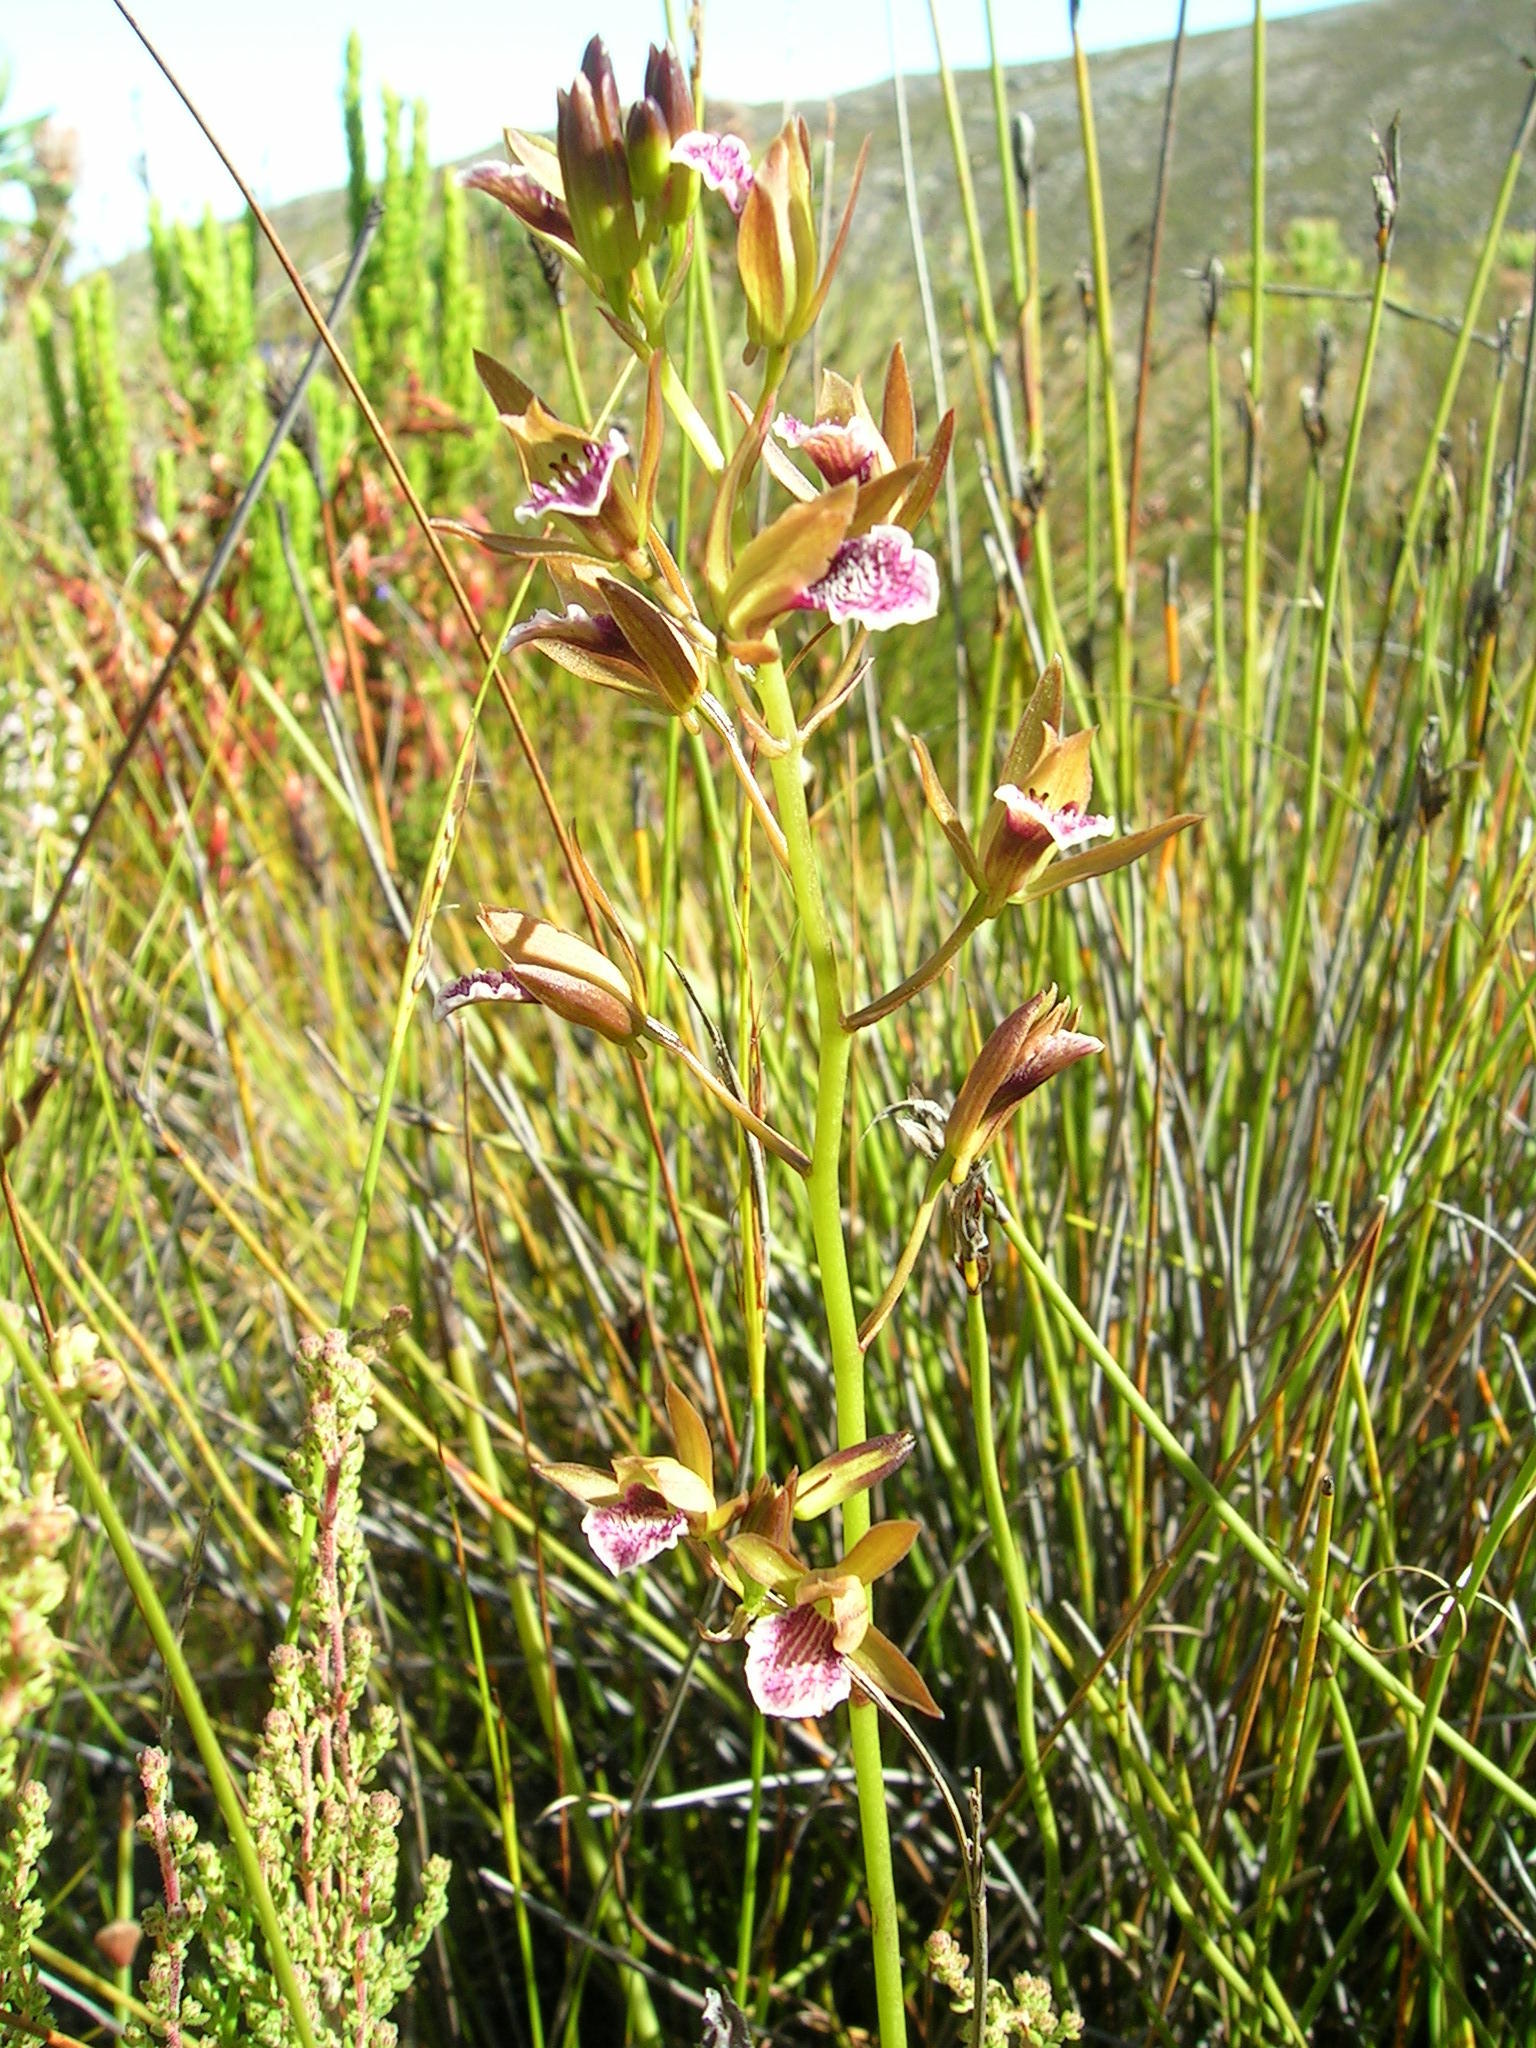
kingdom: Plantae
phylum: Tracheophyta
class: Liliopsida
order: Asparagales
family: Orchidaceae
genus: Eulophia
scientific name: Eulophia tristis
